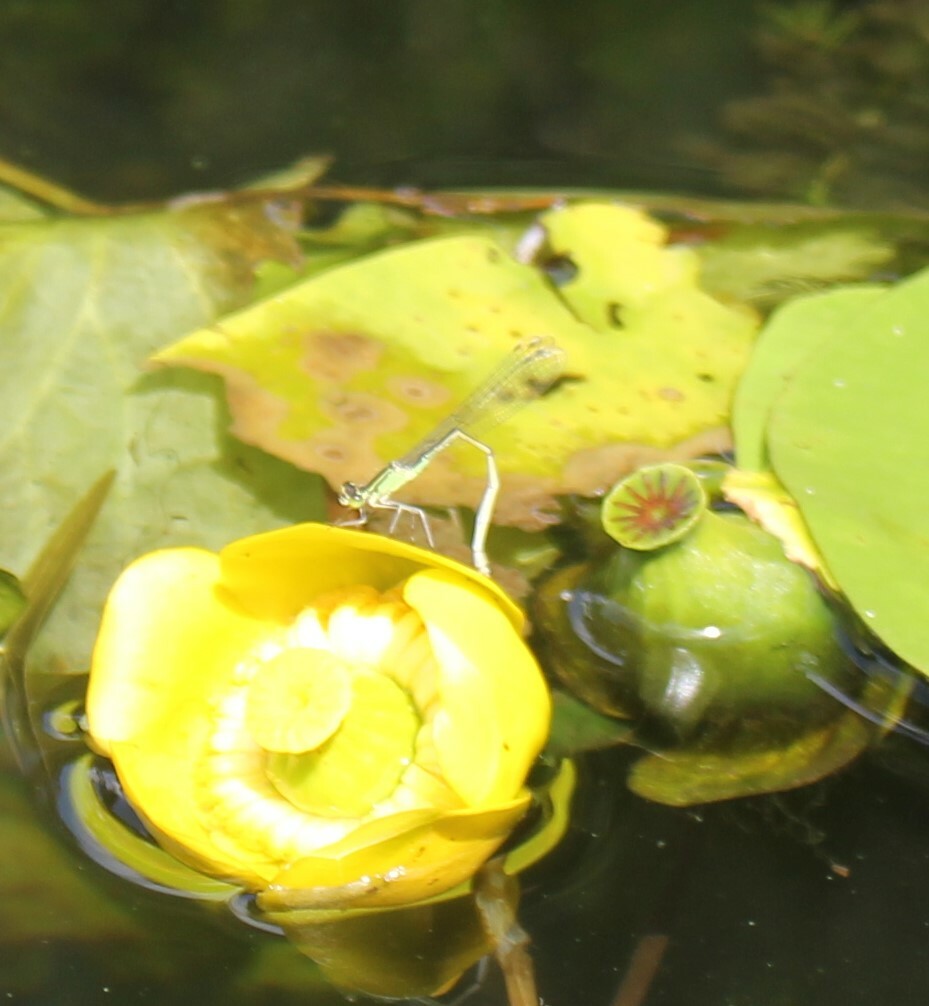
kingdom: Animalia
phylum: Arthropoda
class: Insecta
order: Odonata
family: Coenagrionidae
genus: Ischnura
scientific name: Ischnura elegans
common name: Blue-tailed damselfly
